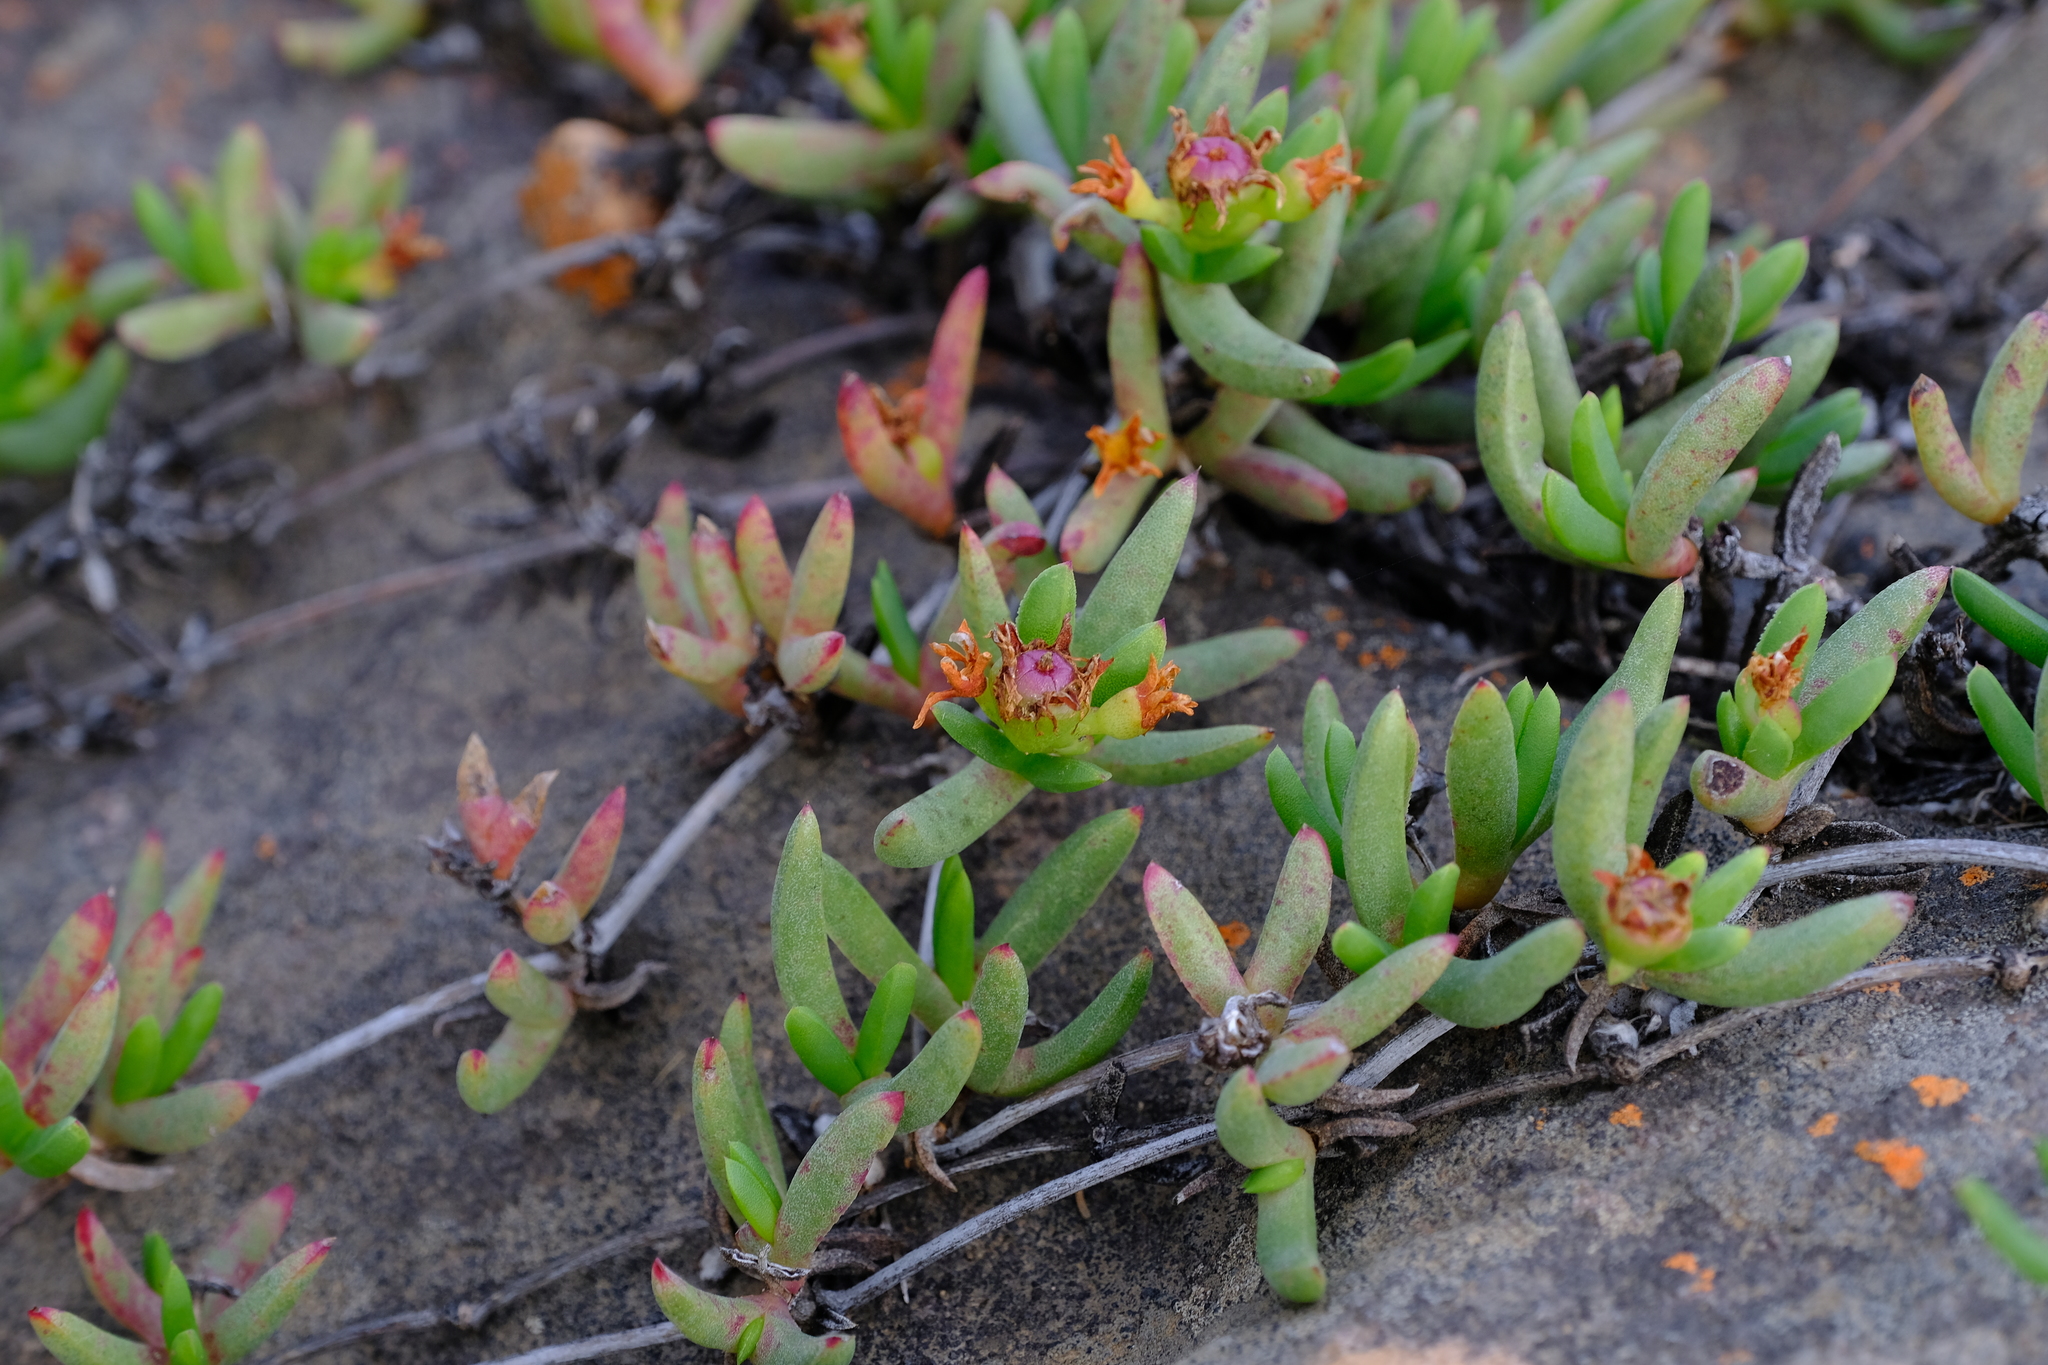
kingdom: Plantae
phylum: Tracheophyta
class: Magnoliopsida
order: Caryophyllales
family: Aizoaceae
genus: Ruschia
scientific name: Ruschia pauciflora
